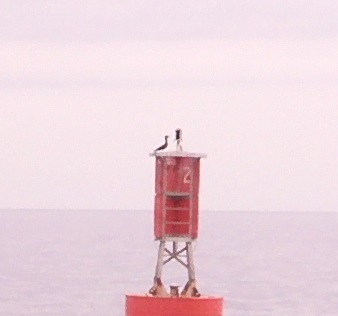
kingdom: Animalia
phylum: Chordata
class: Aves
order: Suliformes
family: Sulidae
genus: Sula
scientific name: Sula leucogaster
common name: Brown booby
